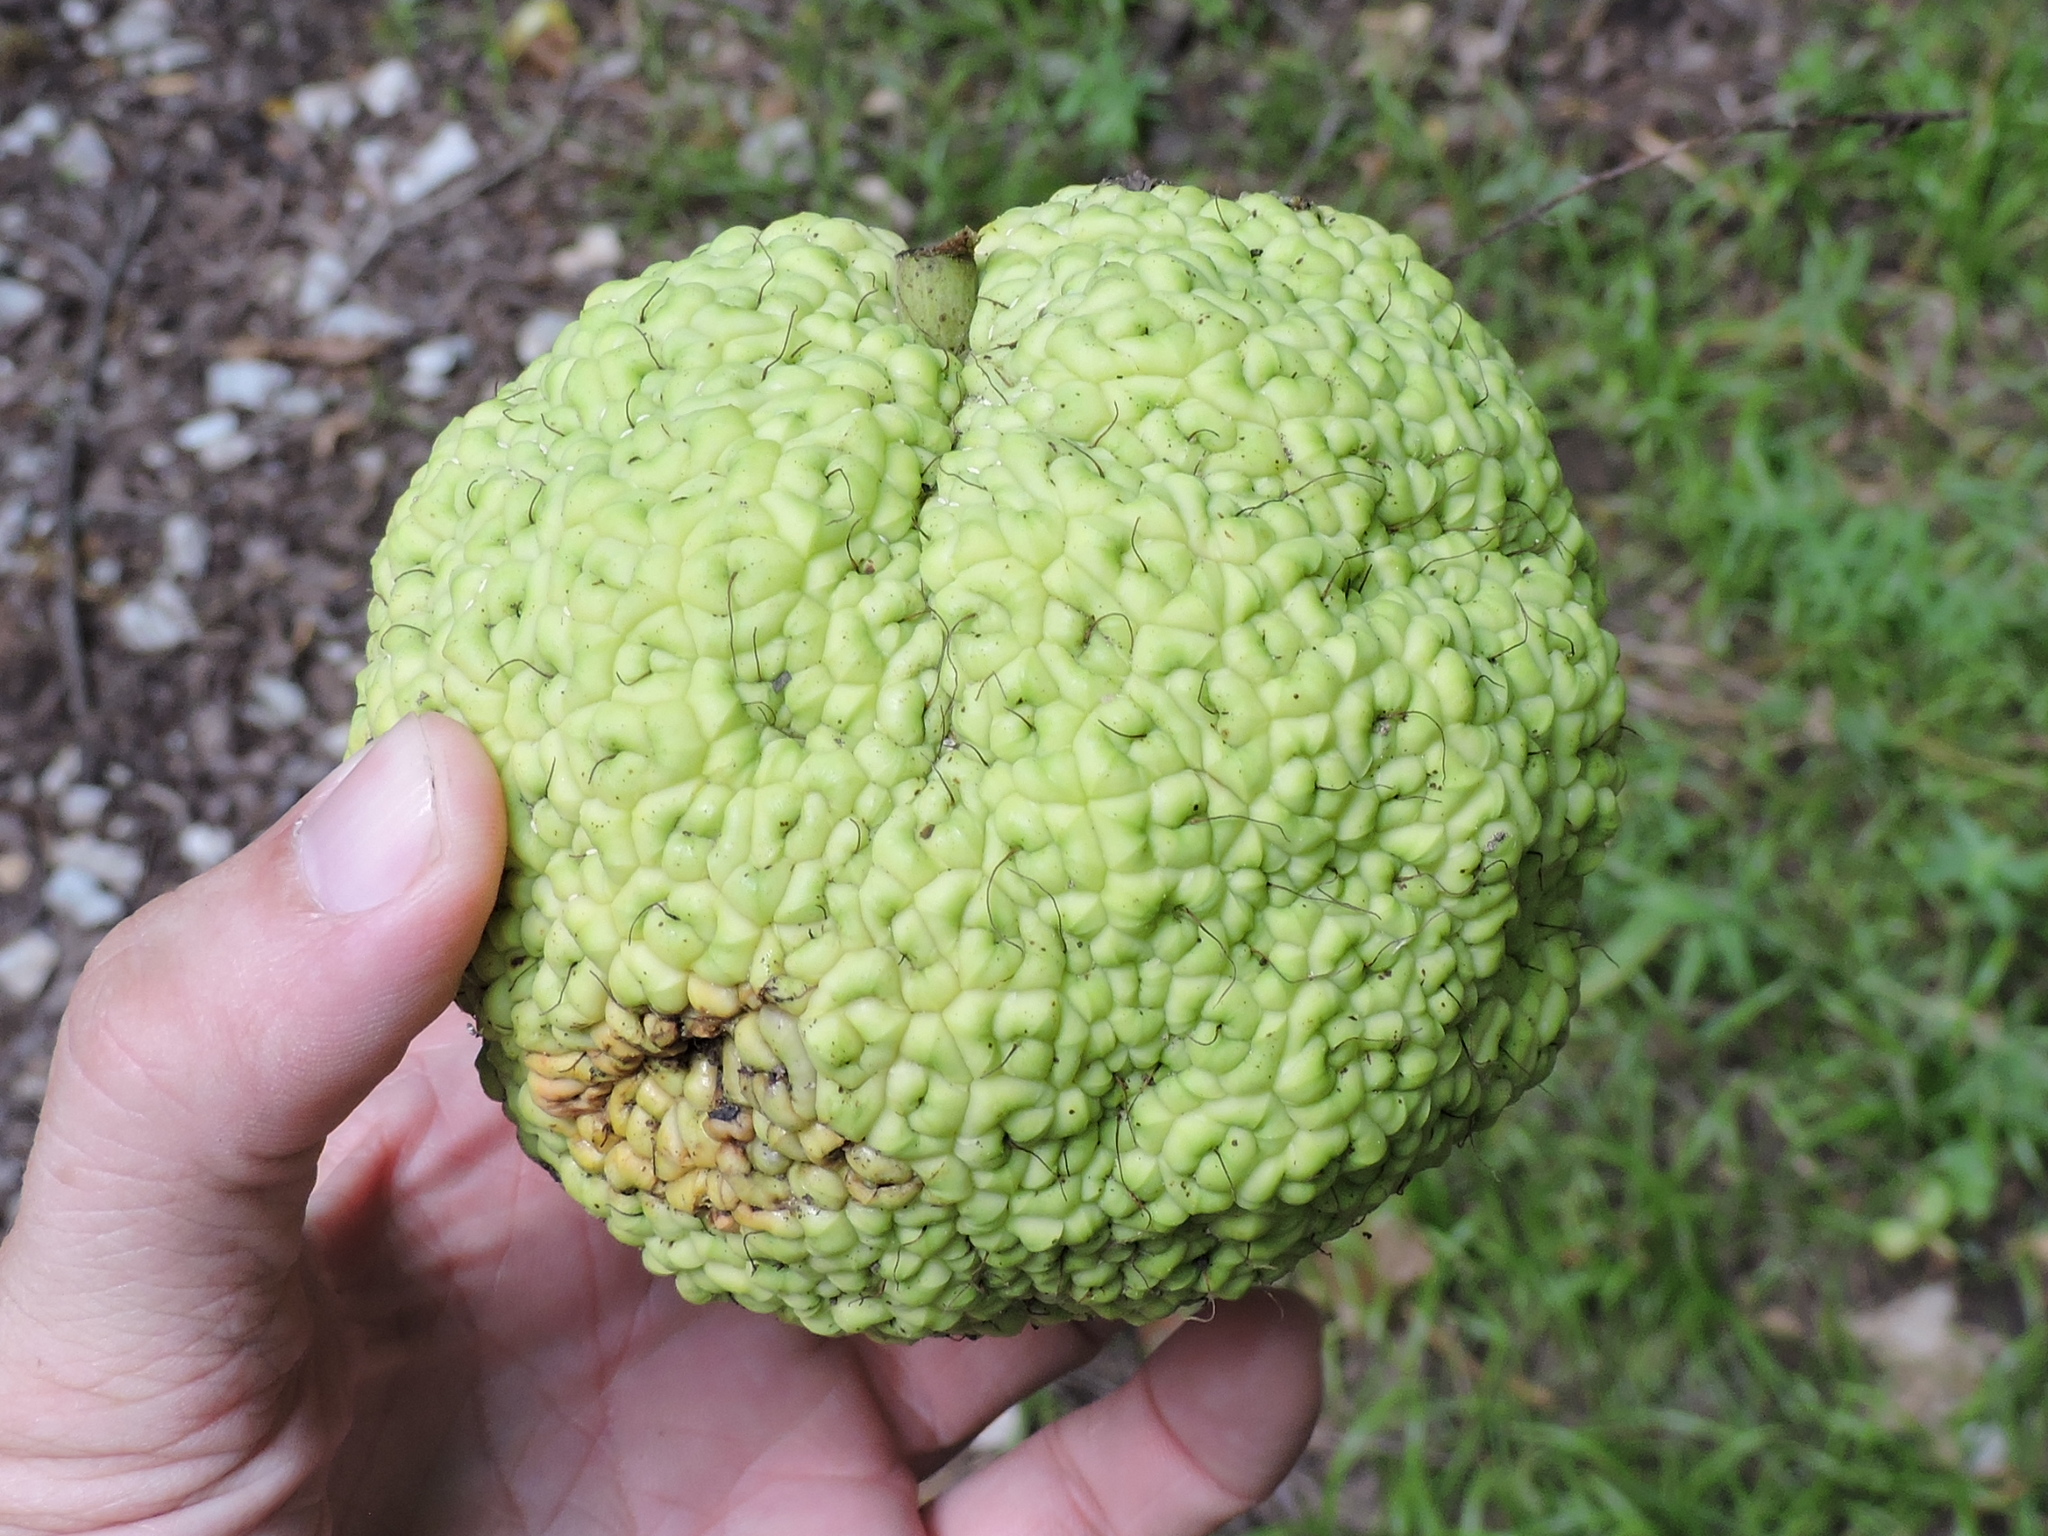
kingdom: Plantae
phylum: Tracheophyta
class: Magnoliopsida
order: Rosales
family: Moraceae
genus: Maclura
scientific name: Maclura pomifera
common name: Osage-orange
